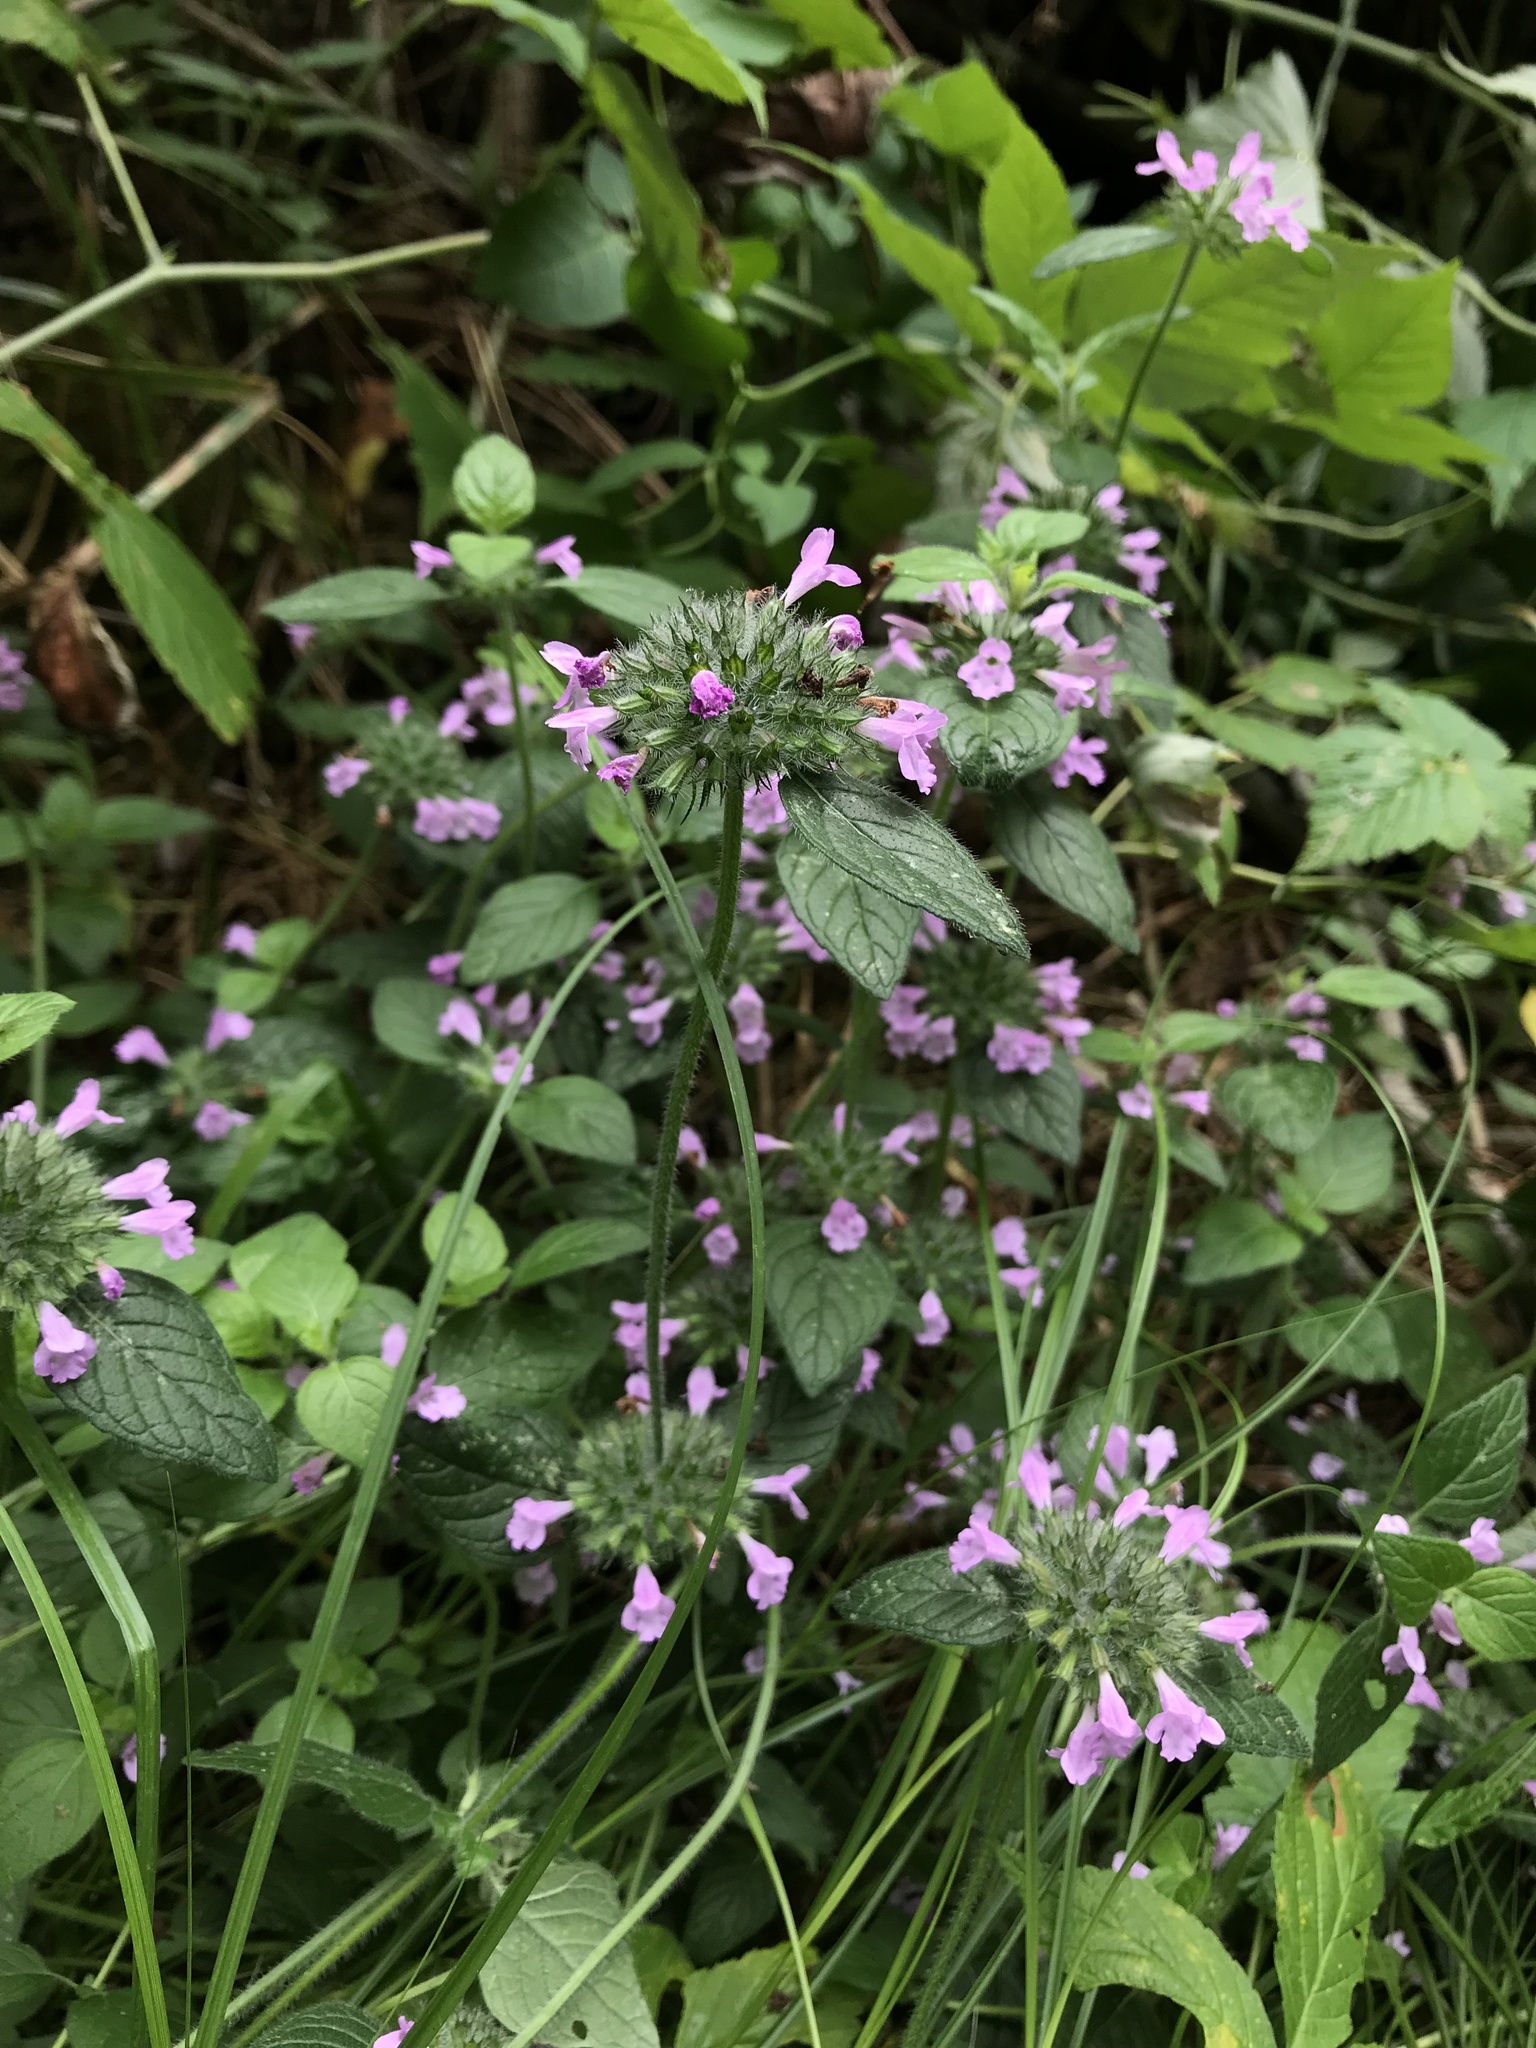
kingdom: Plantae
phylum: Tracheophyta
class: Magnoliopsida
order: Lamiales
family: Lamiaceae
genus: Clinopodium
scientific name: Clinopodium vulgare
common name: Wild basil
